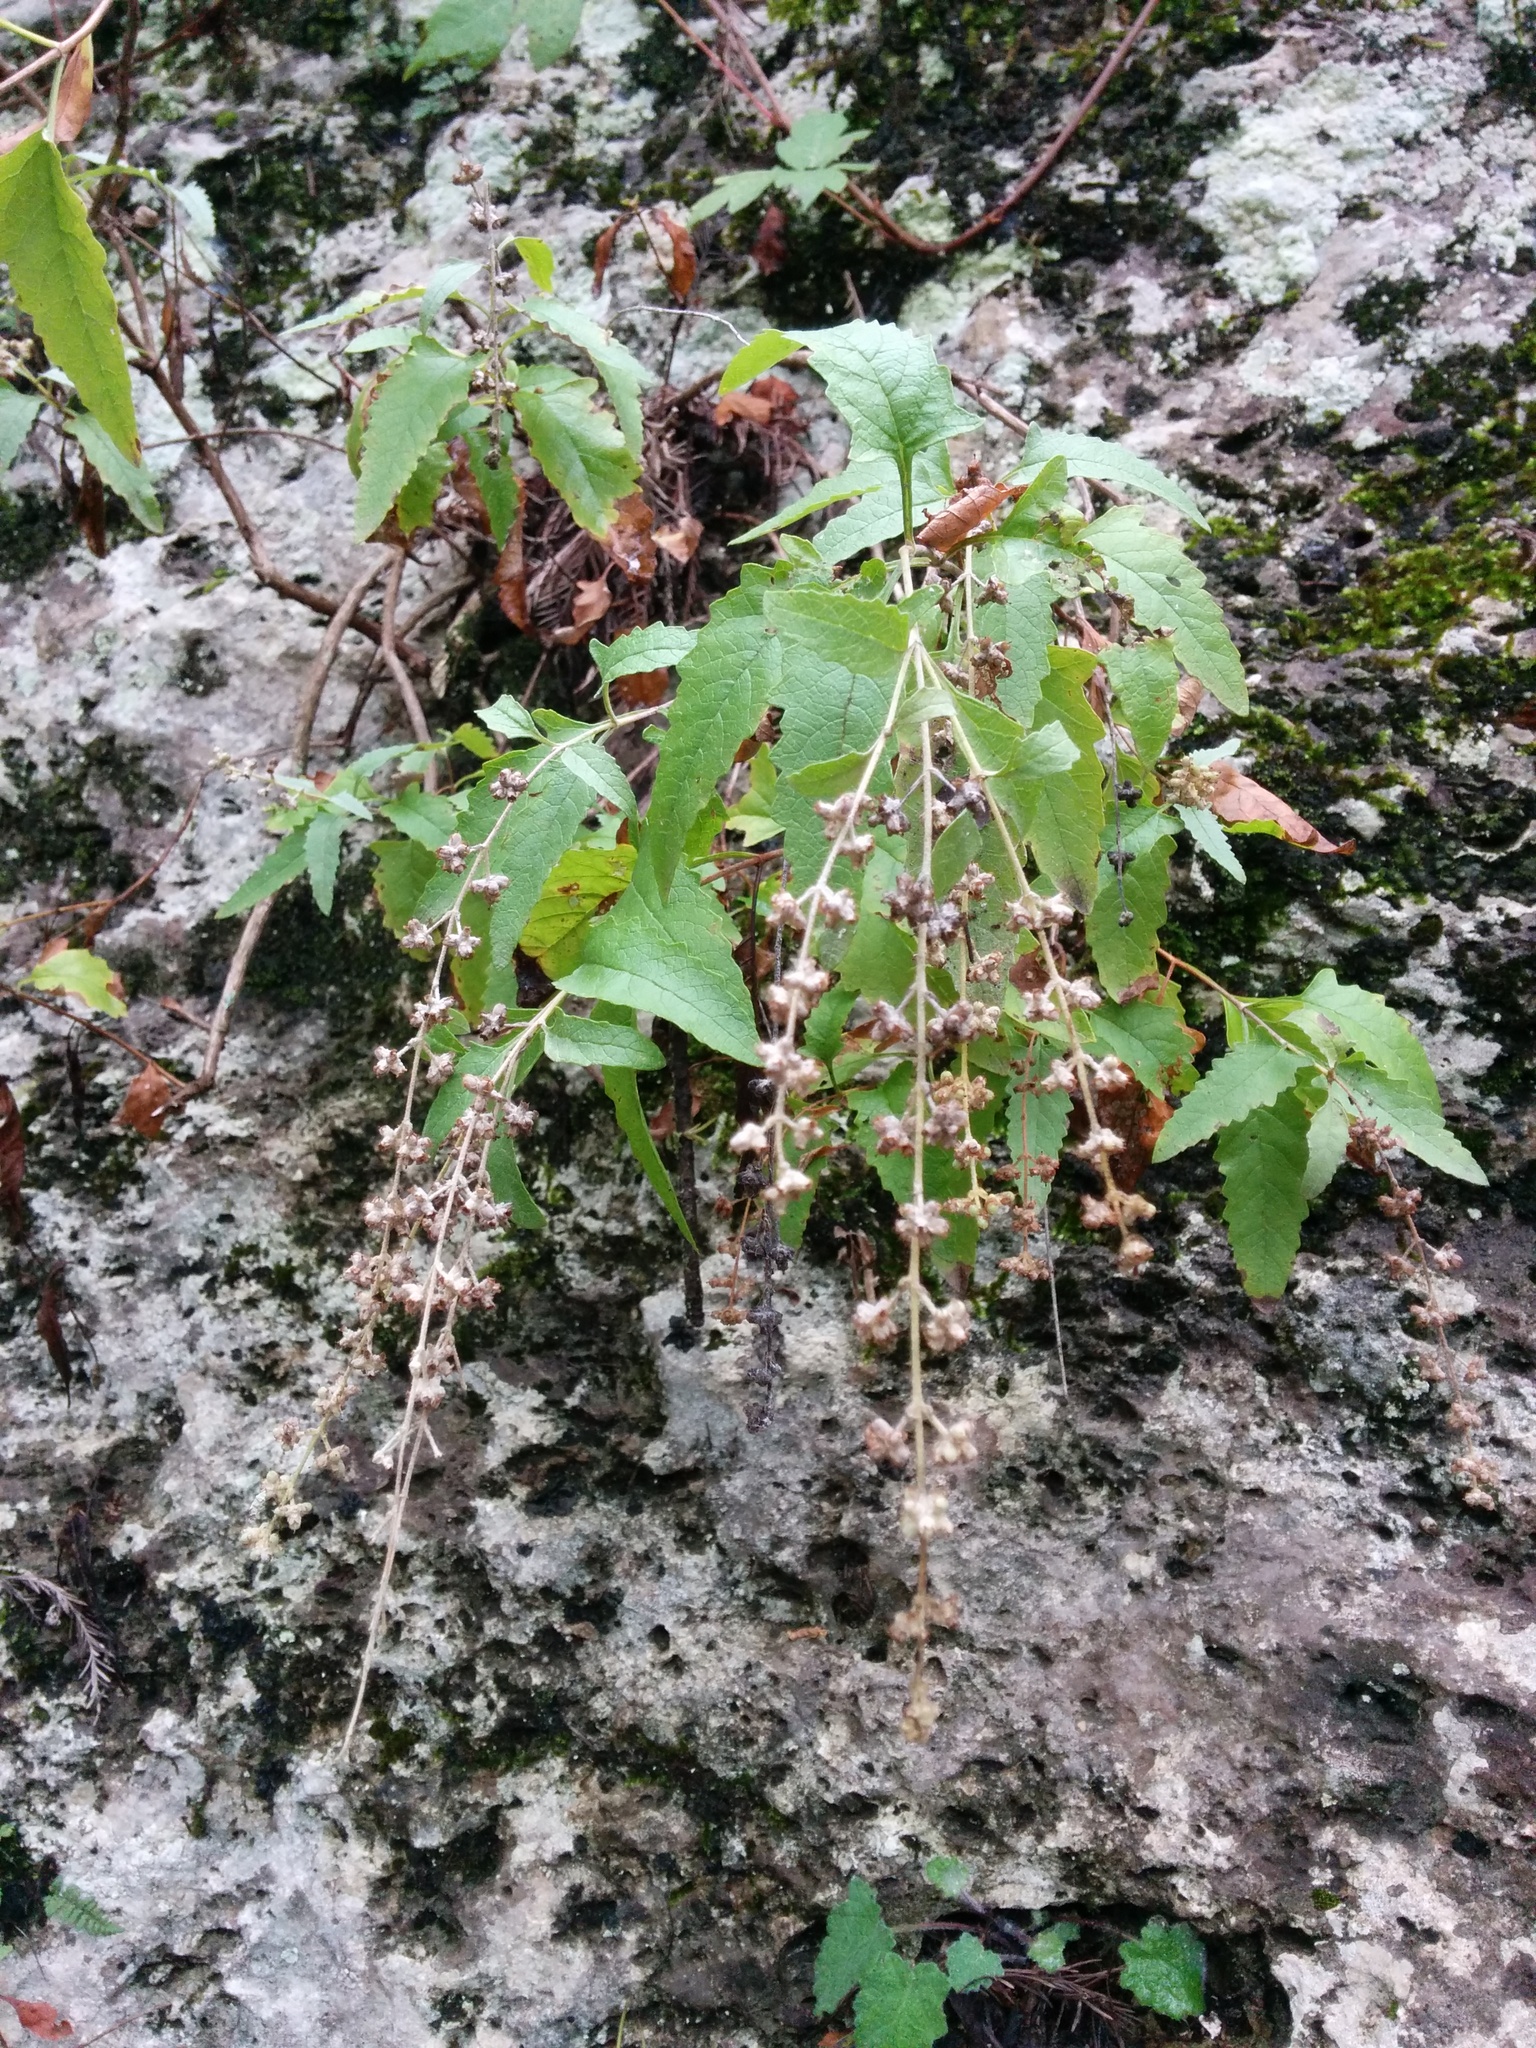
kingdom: Plantae
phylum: Tracheophyta
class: Magnoliopsida
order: Lamiales
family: Scrophulariaceae
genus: Buddleja
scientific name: Buddleja racemosa
